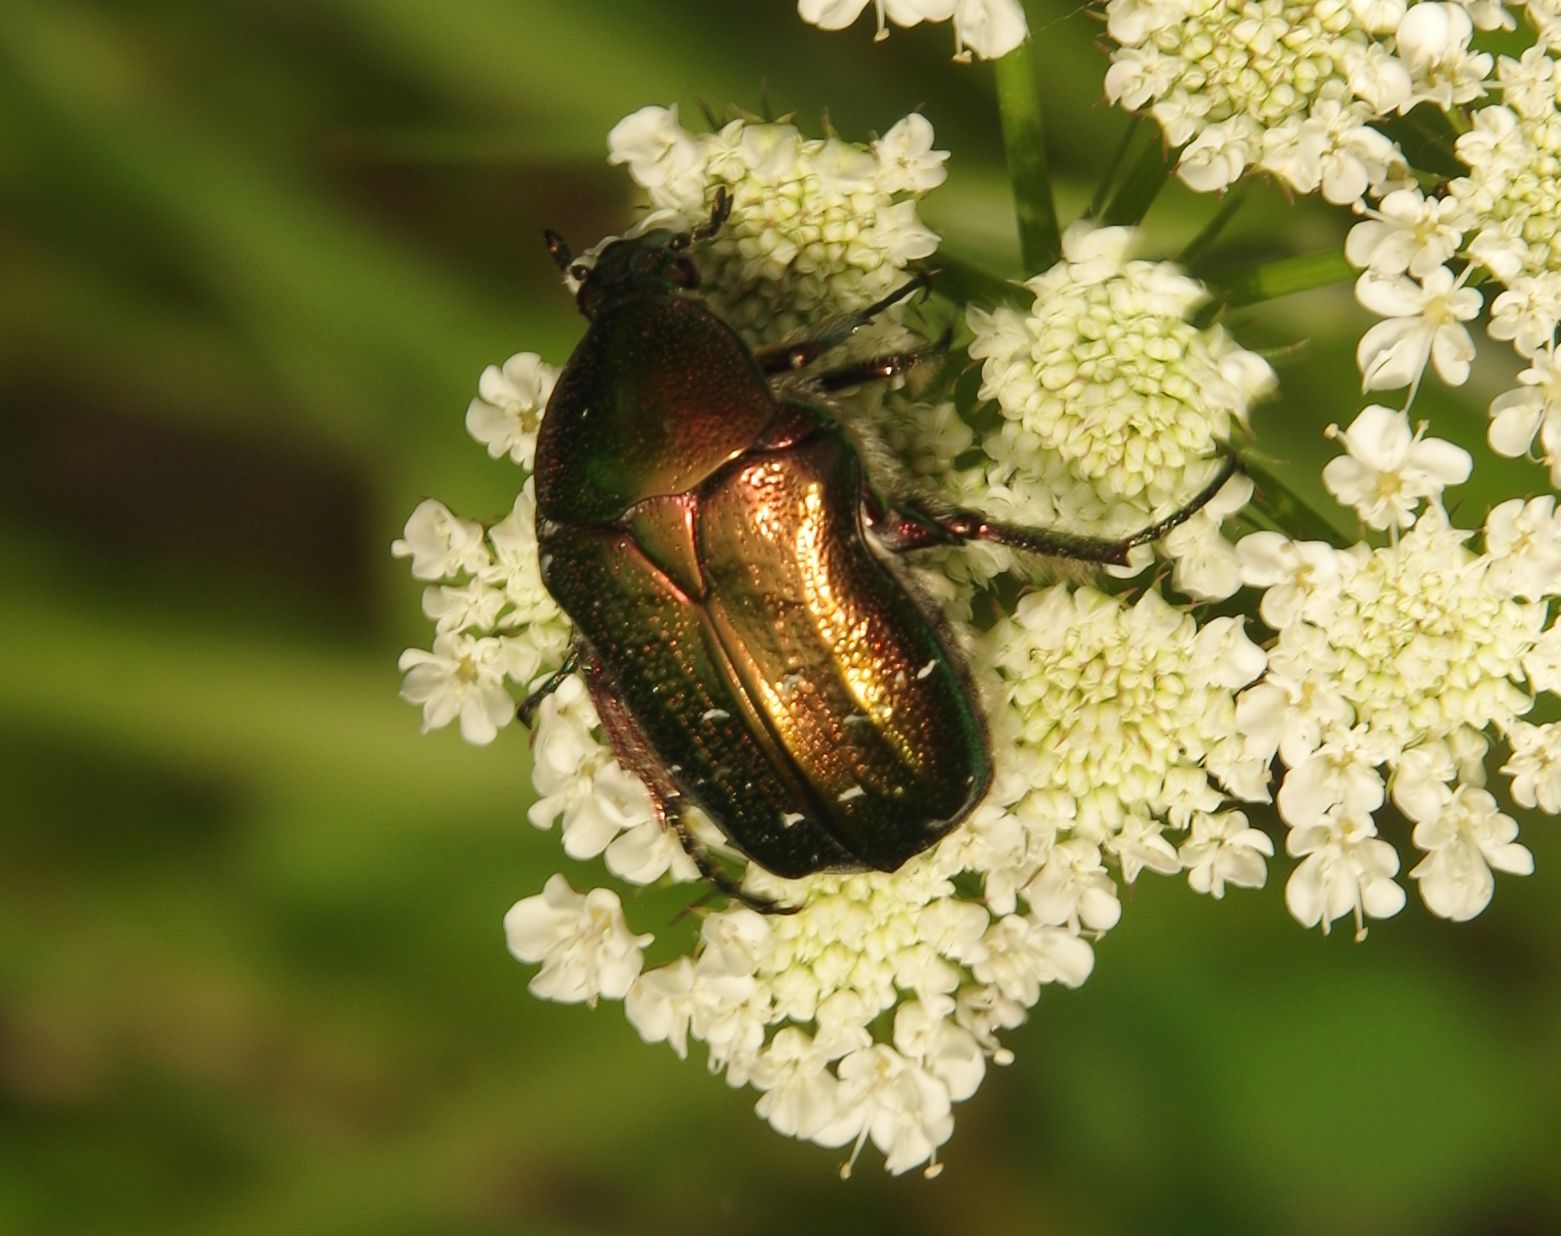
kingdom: Animalia
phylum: Arthropoda
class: Insecta
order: Coleoptera
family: Scarabaeidae
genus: Cetonia
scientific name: Cetonia aurata
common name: Rose chafer
